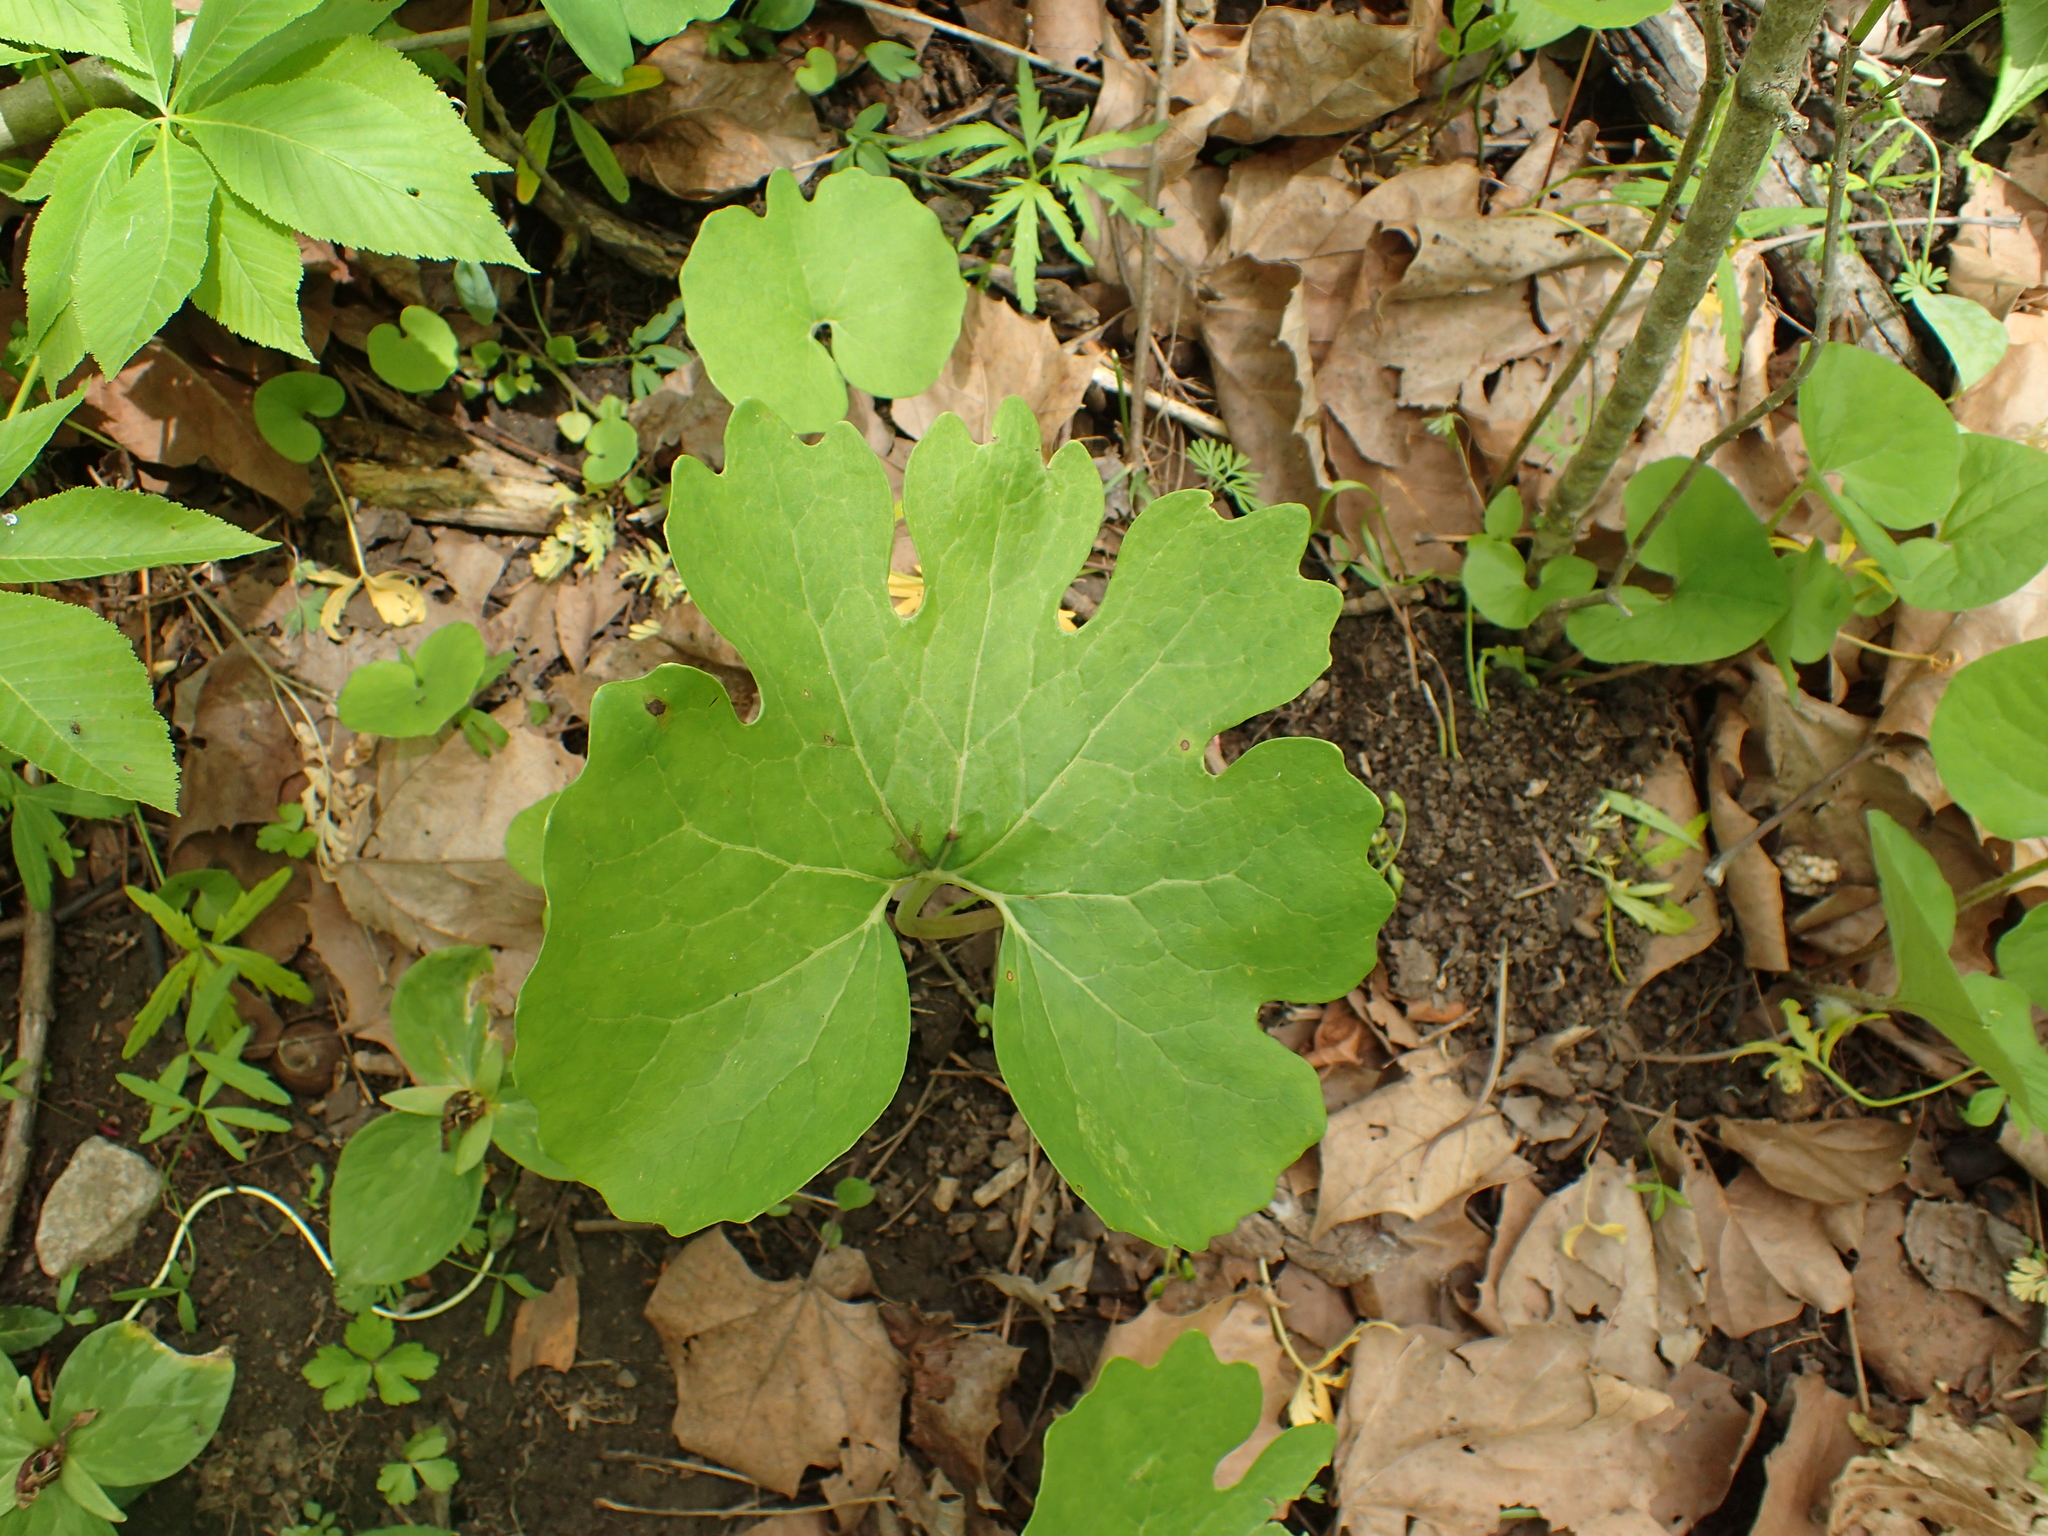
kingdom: Plantae
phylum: Tracheophyta
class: Magnoliopsida
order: Ranunculales
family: Papaveraceae
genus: Sanguinaria
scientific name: Sanguinaria canadensis
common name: Bloodroot
